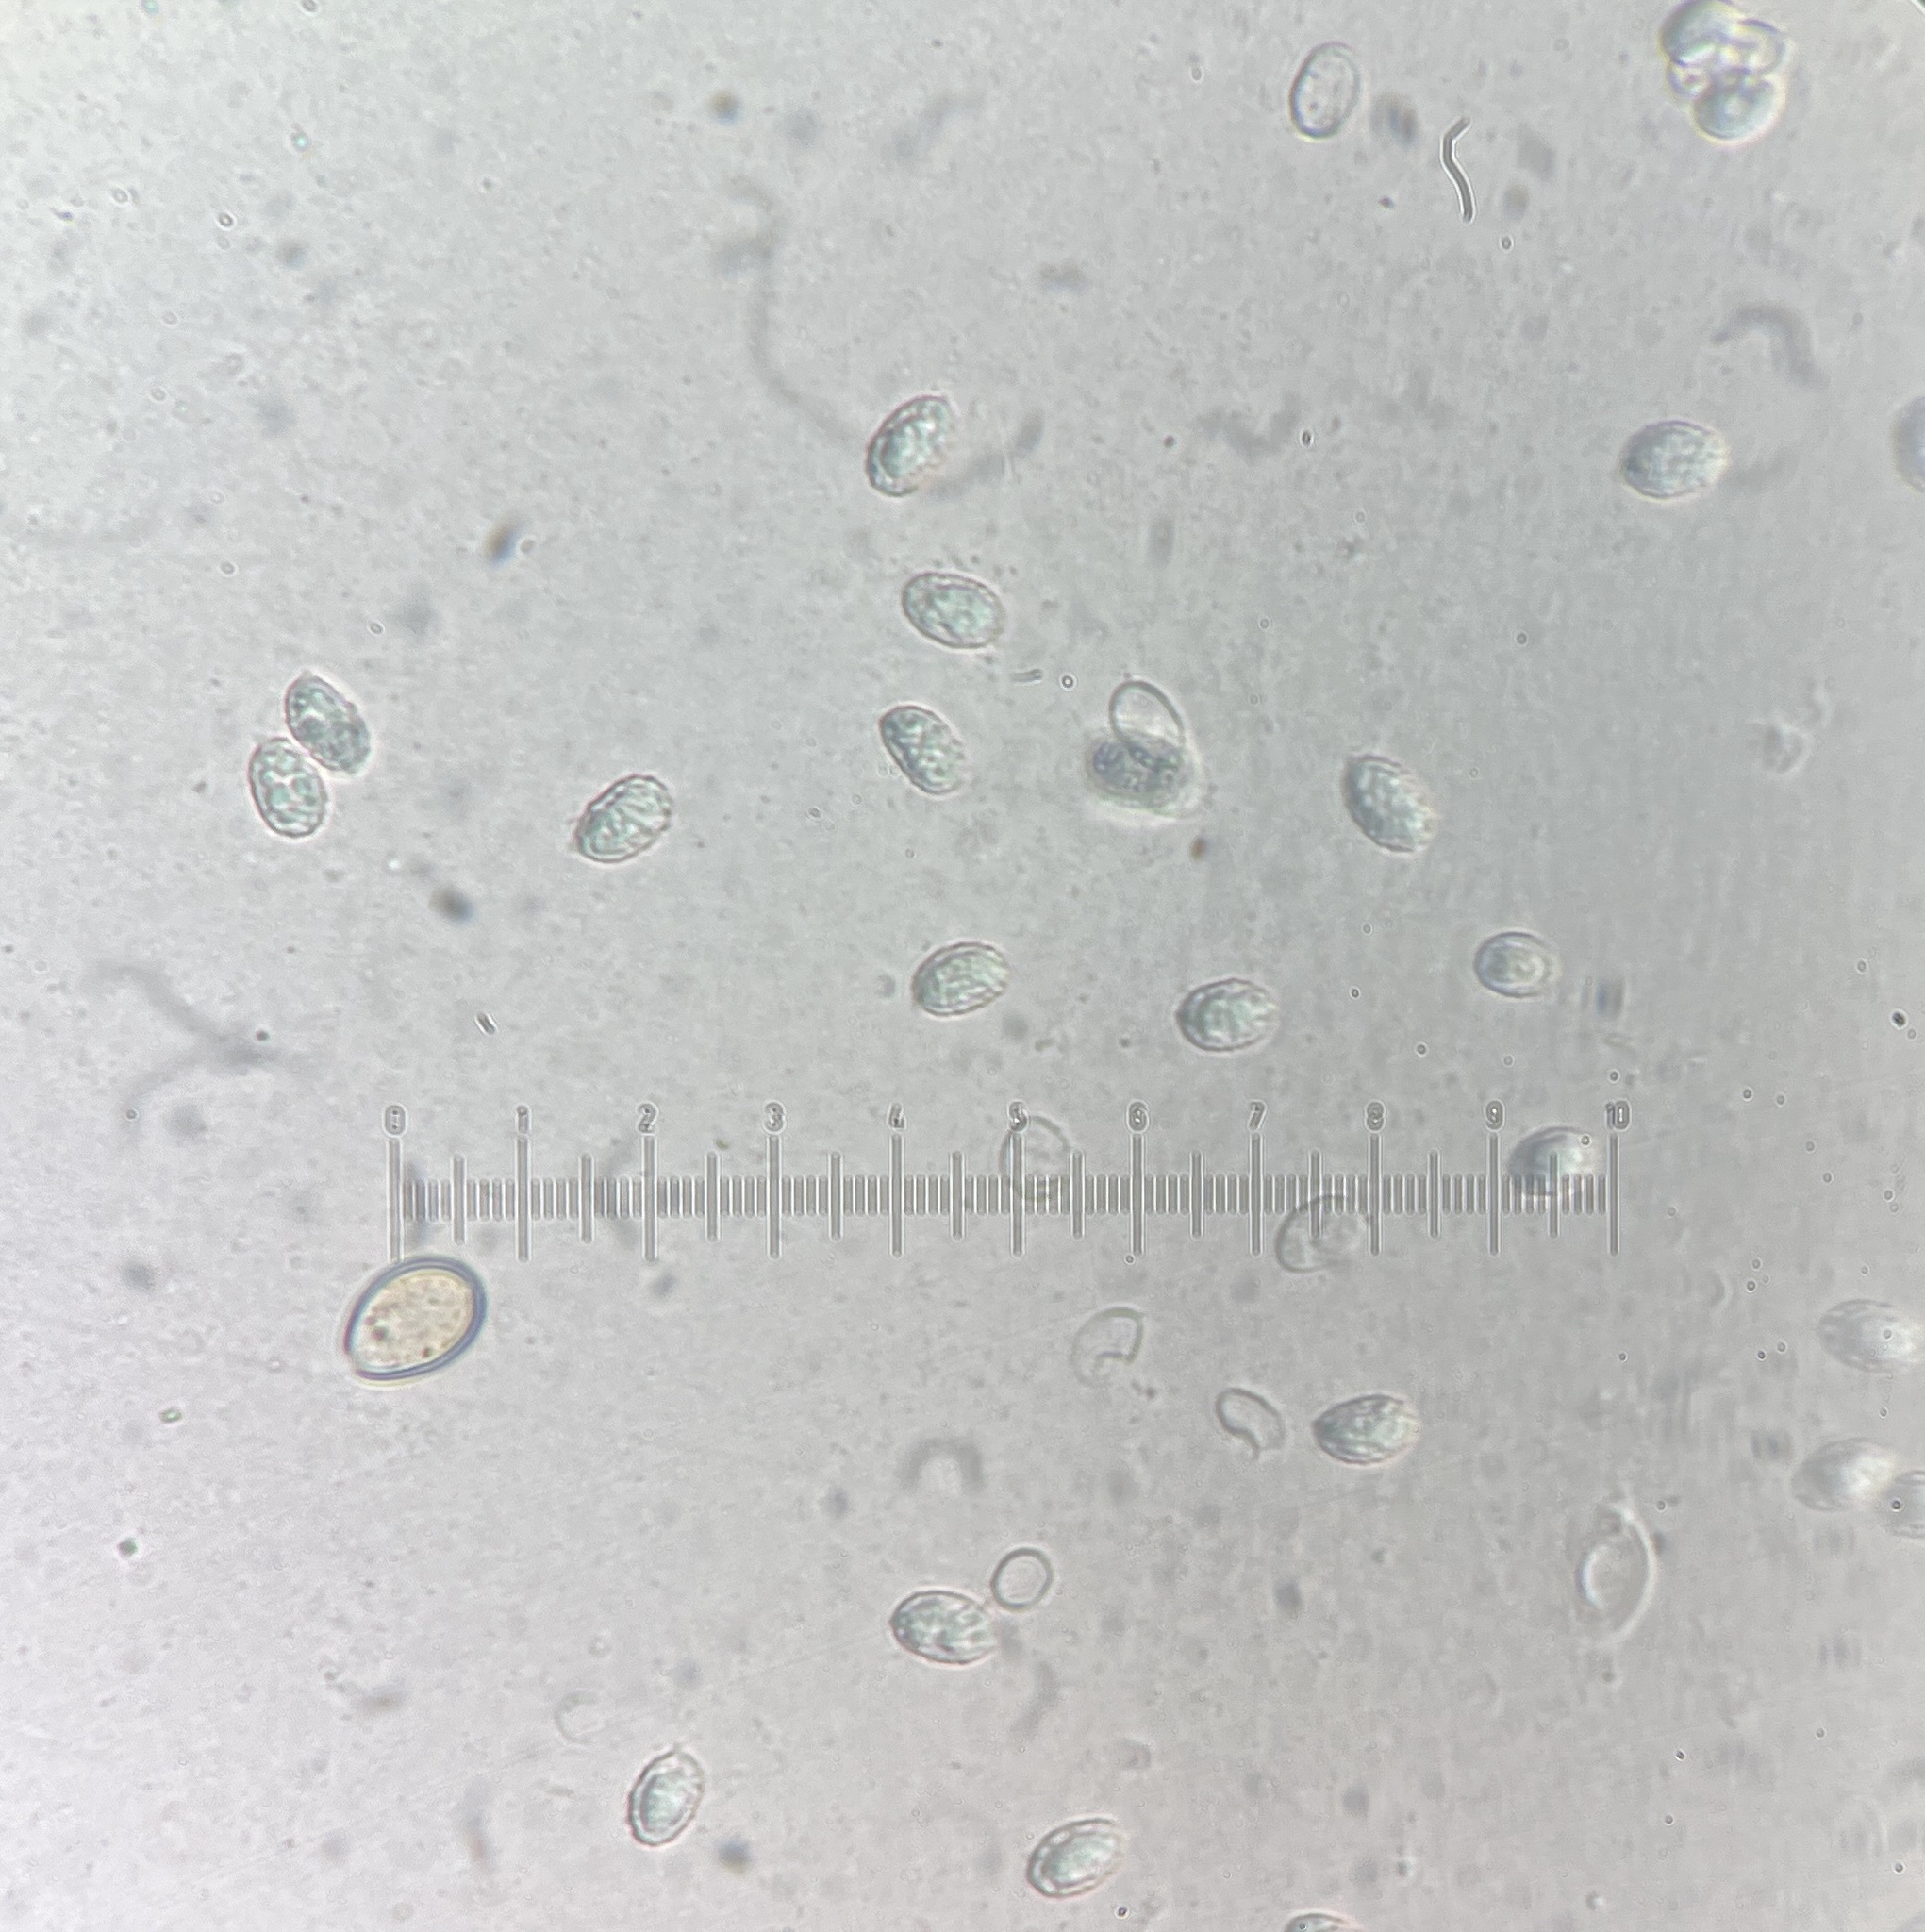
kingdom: Fungi
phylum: Basidiomycota
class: Agaricomycetes
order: Agaricales
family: Tricholomataceae
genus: Melanoleuca
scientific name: Melanoleuca malenconii
